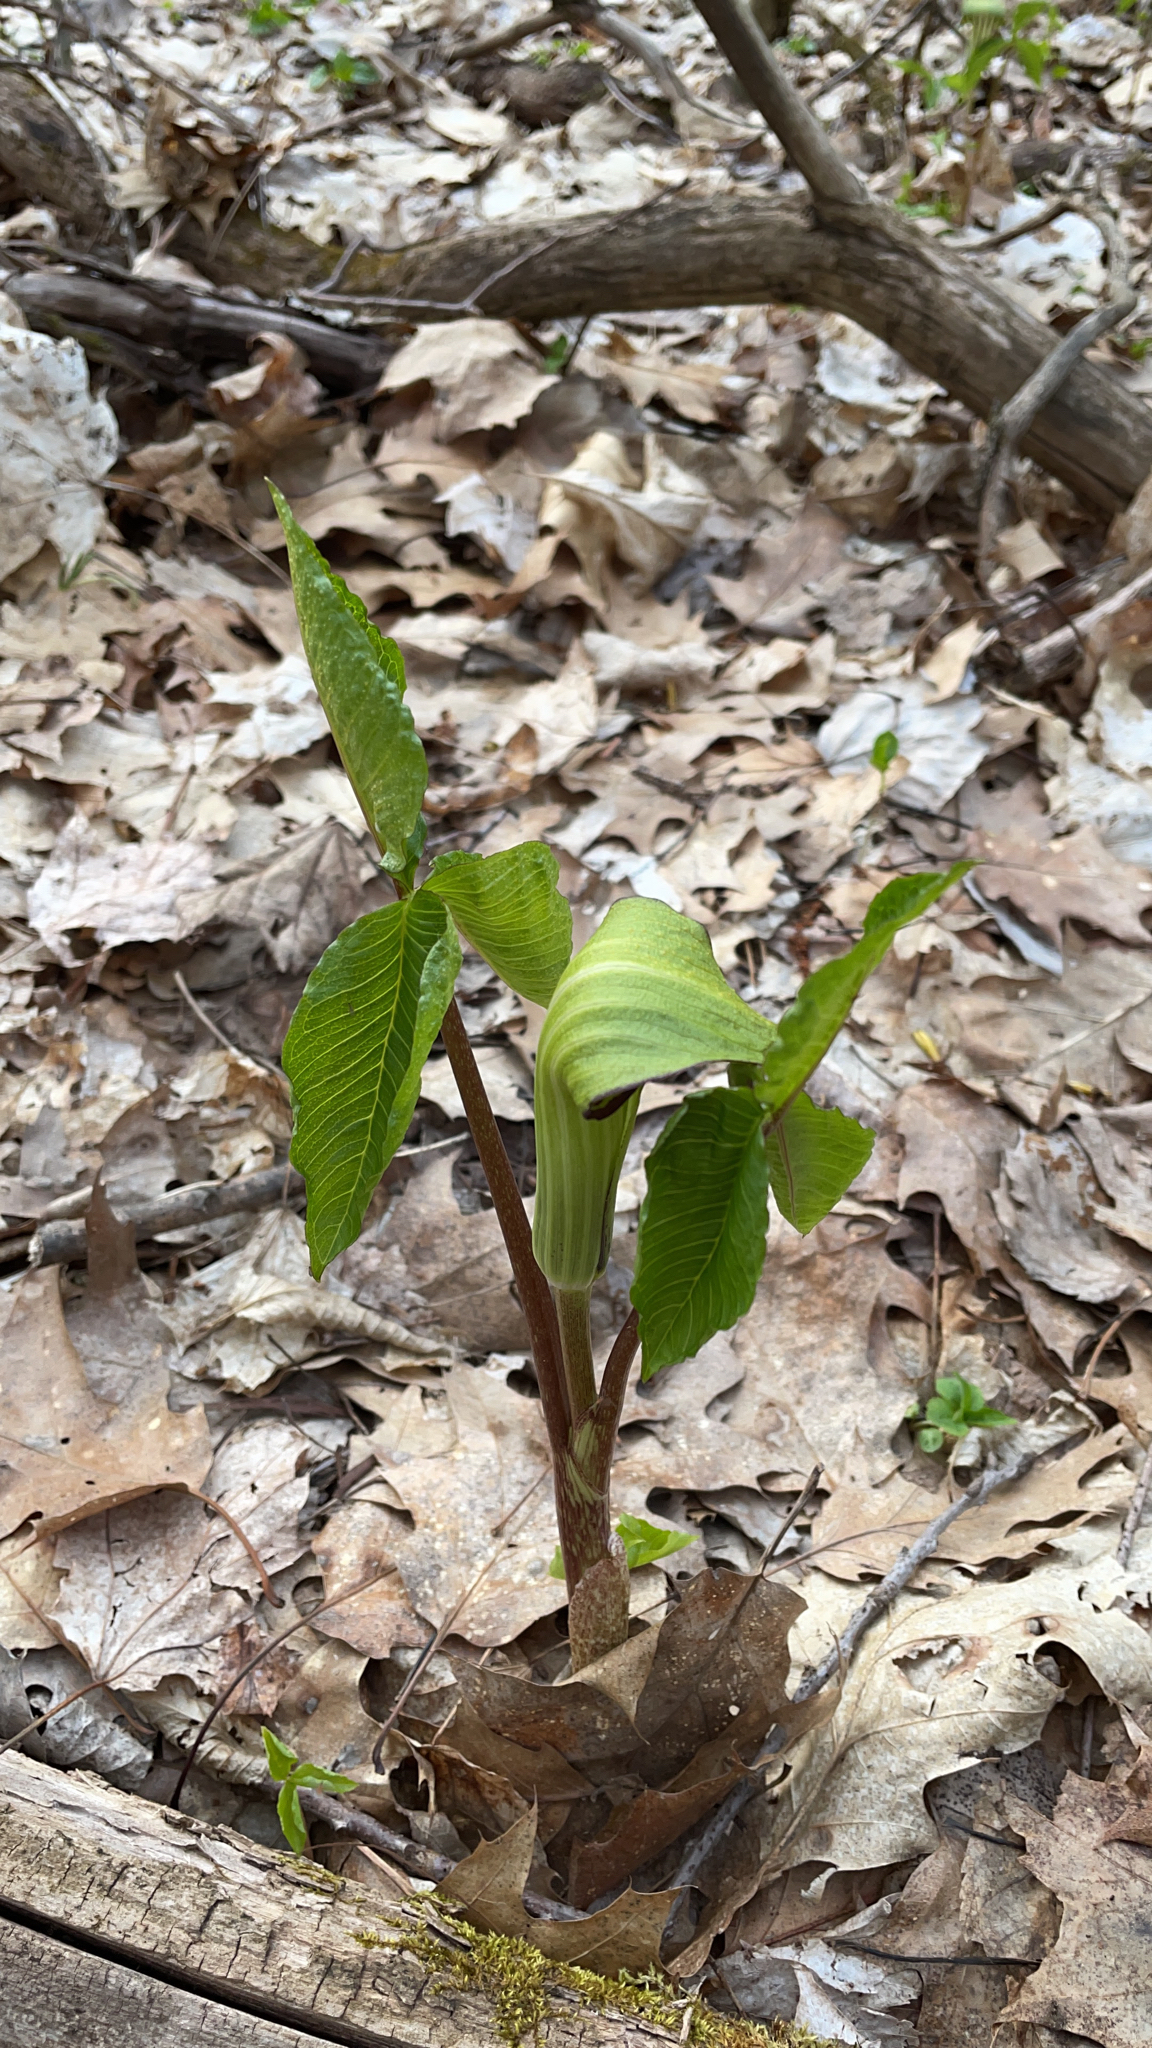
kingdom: Plantae
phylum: Tracheophyta
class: Liliopsida
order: Alismatales
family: Araceae
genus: Arisaema
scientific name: Arisaema triphyllum
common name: Jack-in-the-pulpit
